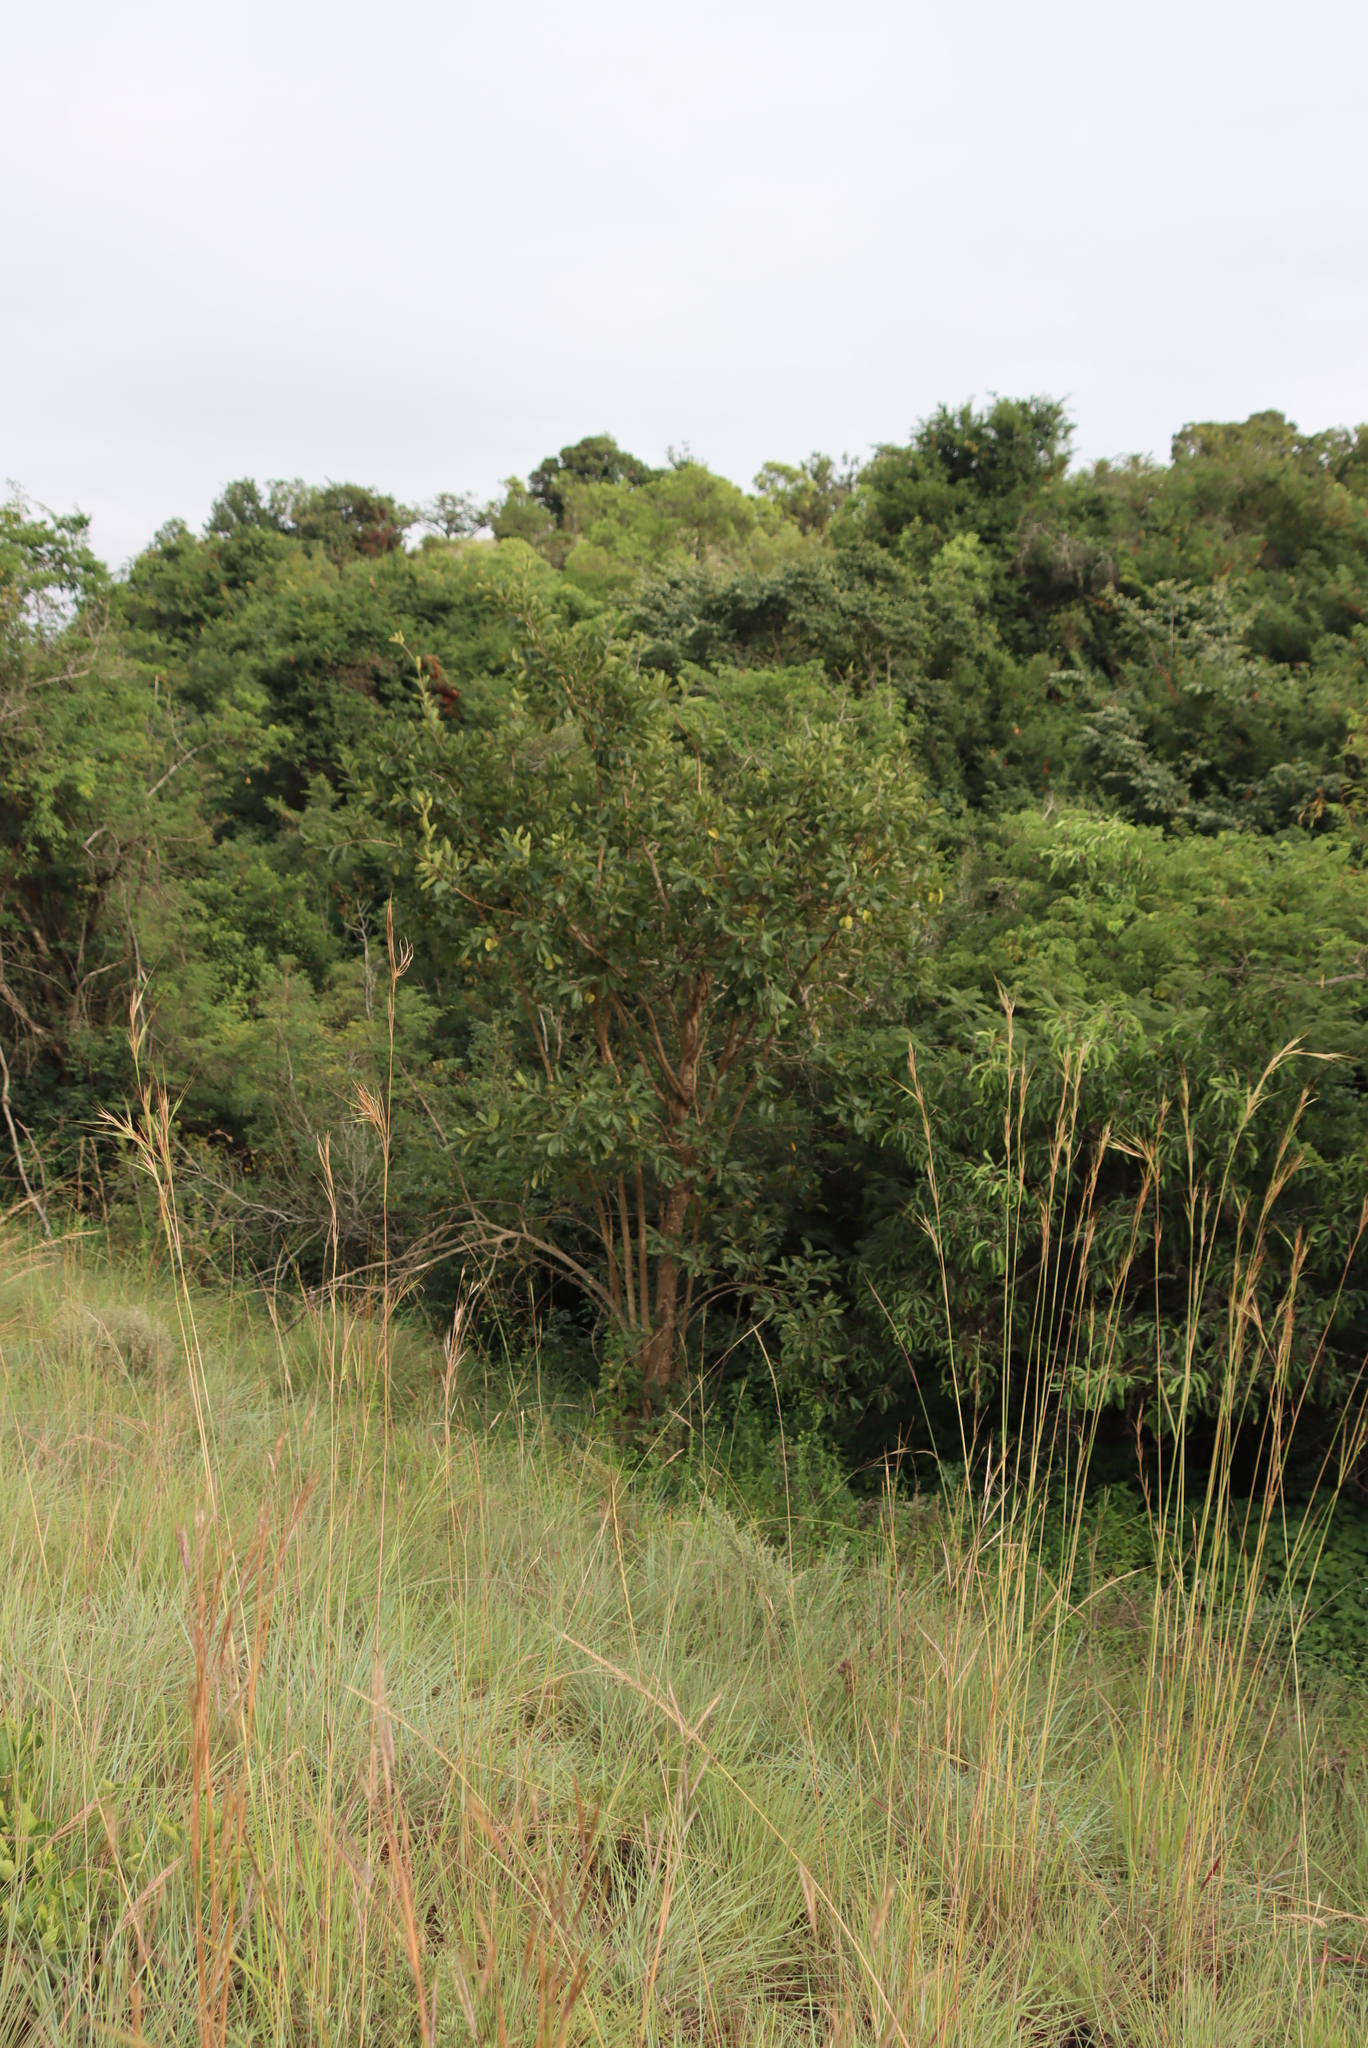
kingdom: Plantae
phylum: Tracheophyta
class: Magnoliopsida
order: Myrtales
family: Combretaceae
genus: Combretum
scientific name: Combretum zeyheri
